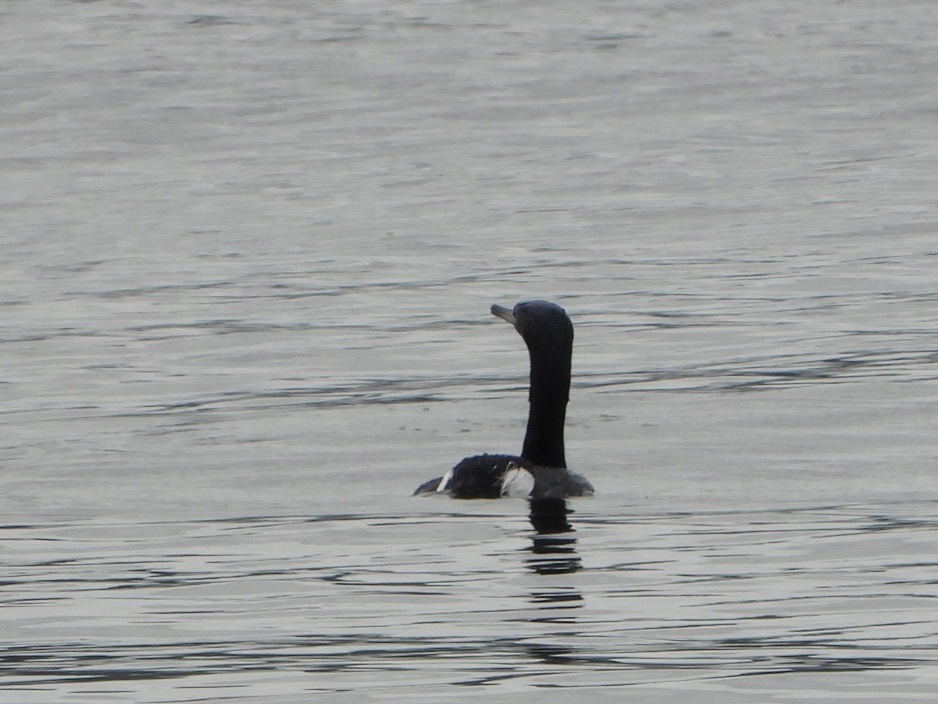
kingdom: Animalia
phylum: Chordata
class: Aves
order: Suliformes
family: Phalacrocoracidae
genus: Phalacrocorax
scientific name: Phalacrocorax pelagicus
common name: Pelagic cormorant
